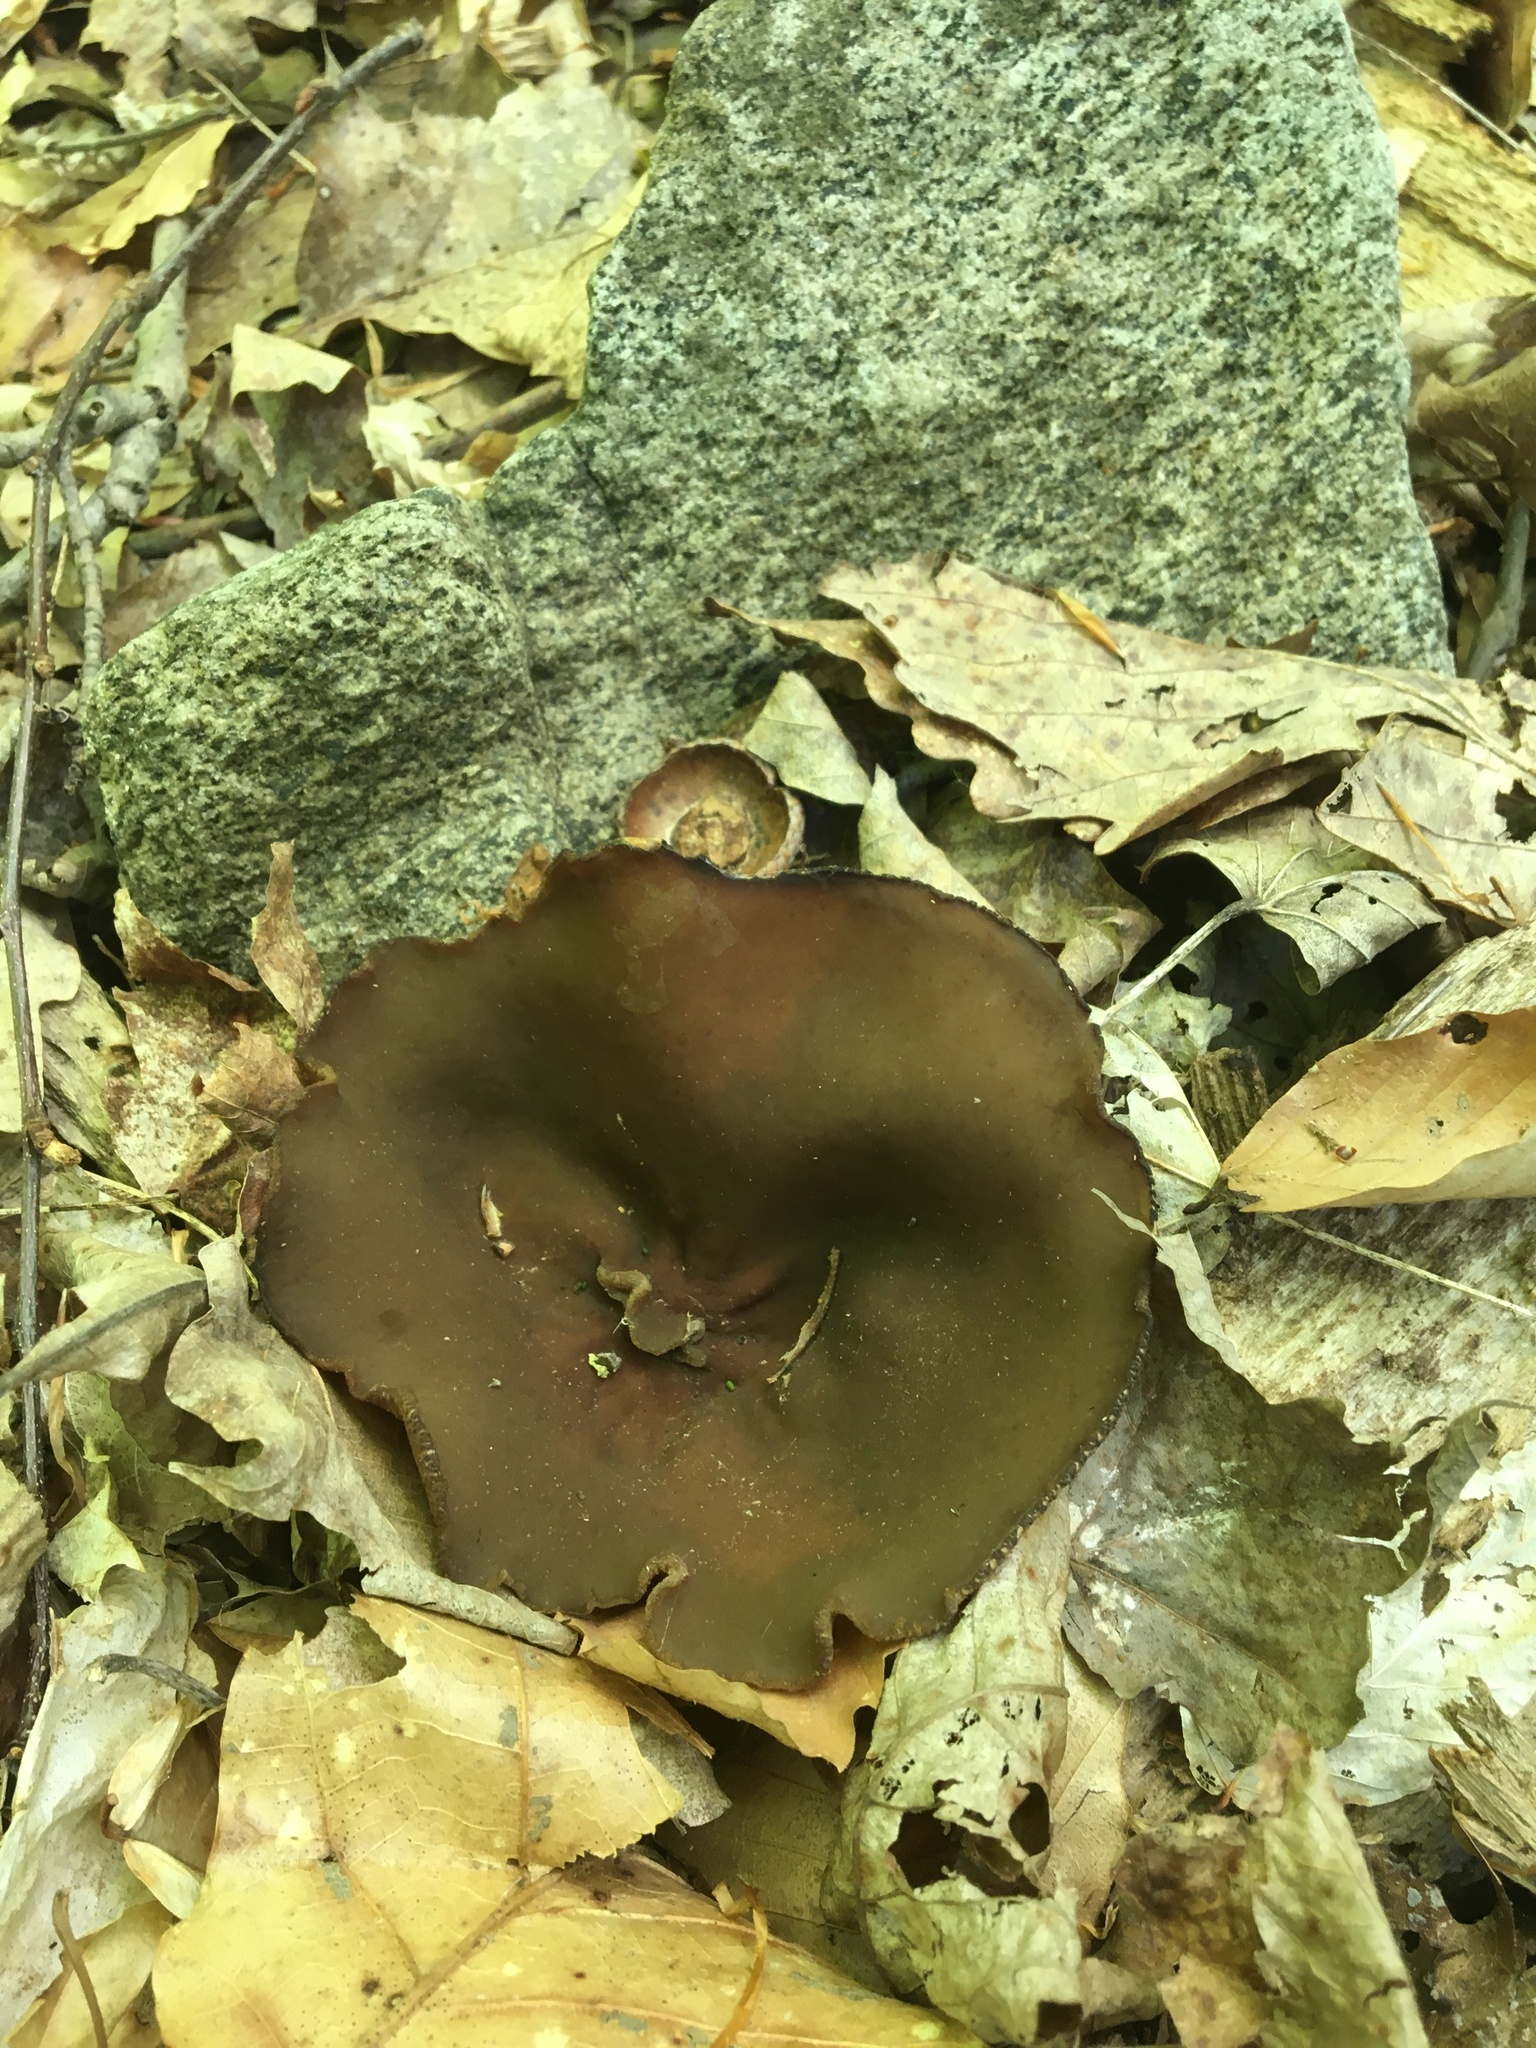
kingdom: Fungi
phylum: Ascomycota
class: Pezizomycetes
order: Pezizales
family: Pezizaceae
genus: Phylloscypha
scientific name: Phylloscypha phyllogena
